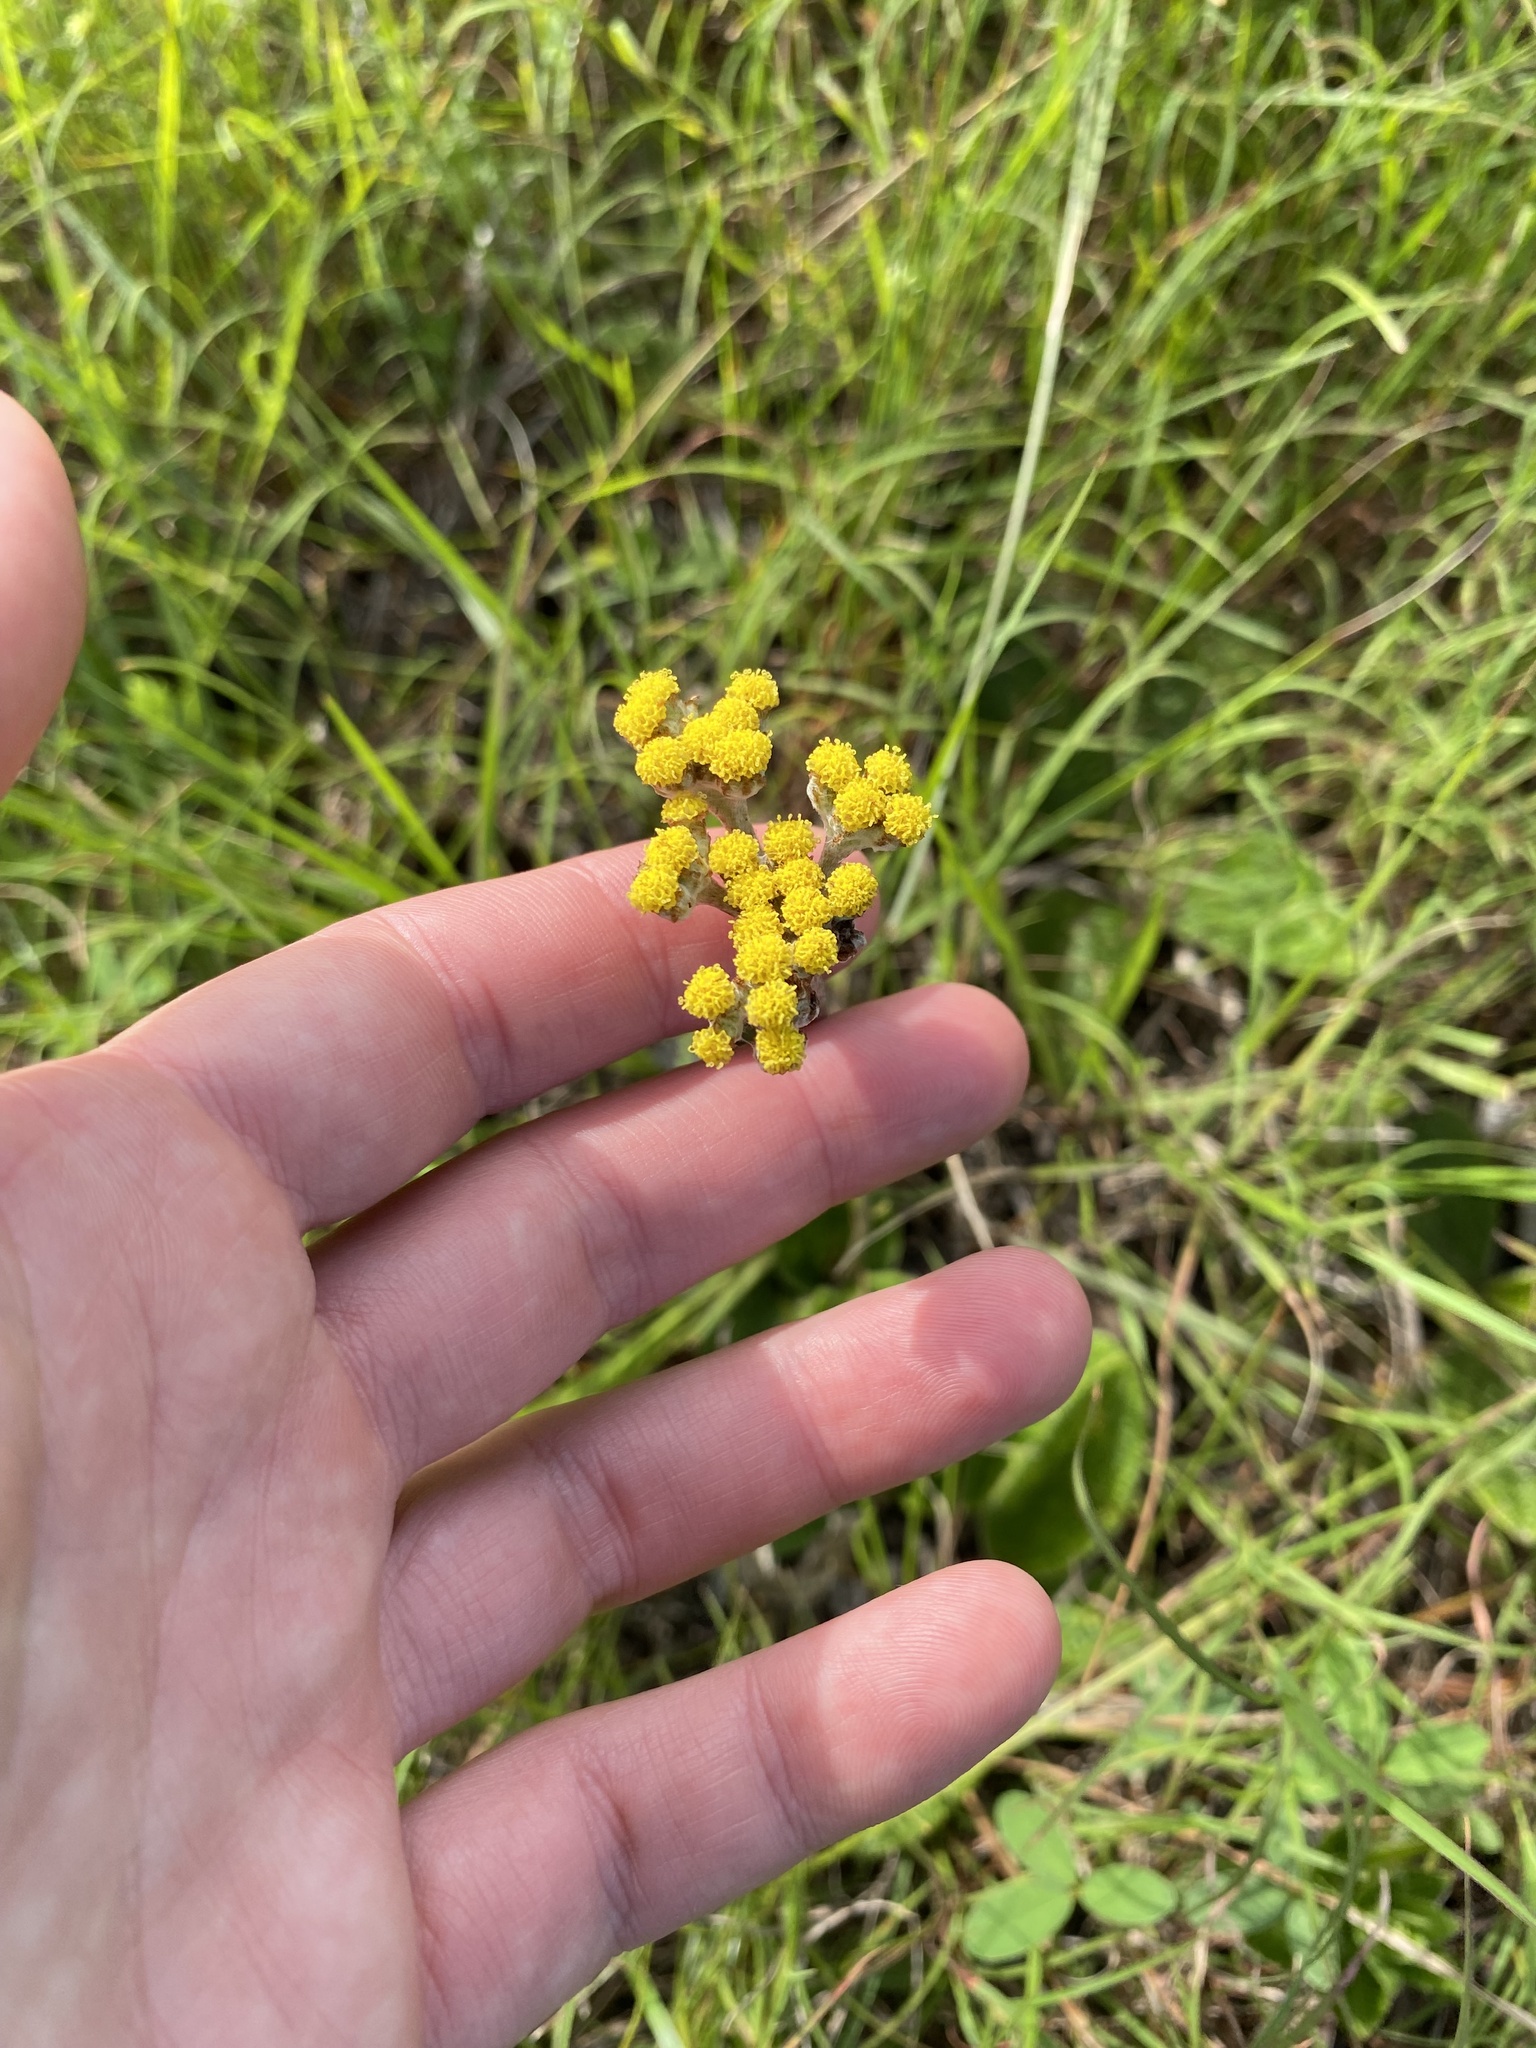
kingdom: Plantae
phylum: Tracheophyta
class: Magnoliopsida
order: Asterales
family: Asteraceae
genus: Helichrysum
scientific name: Helichrysum nudifolium
